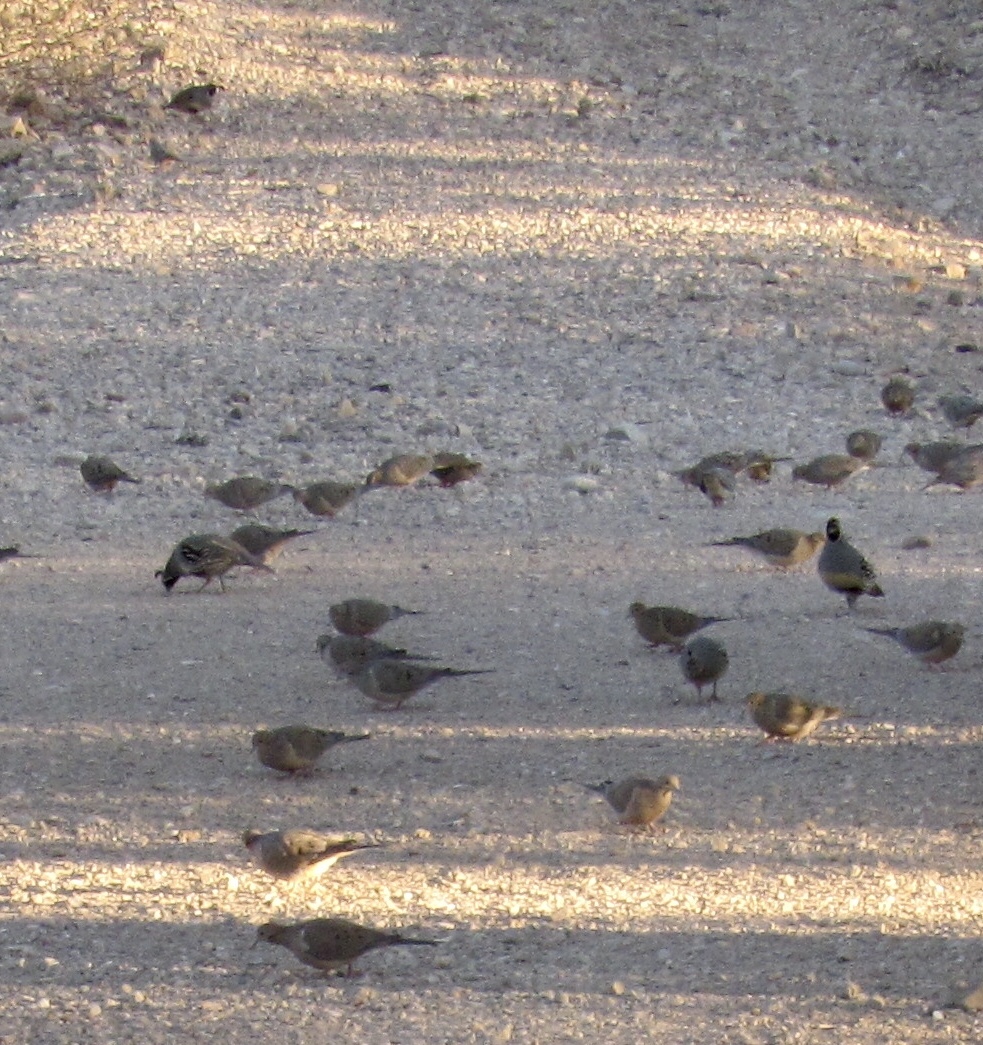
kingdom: Animalia
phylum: Chordata
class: Aves
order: Galliformes
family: Odontophoridae
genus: Callipepla
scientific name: Callipepla gambelii
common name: Gambel's quail
